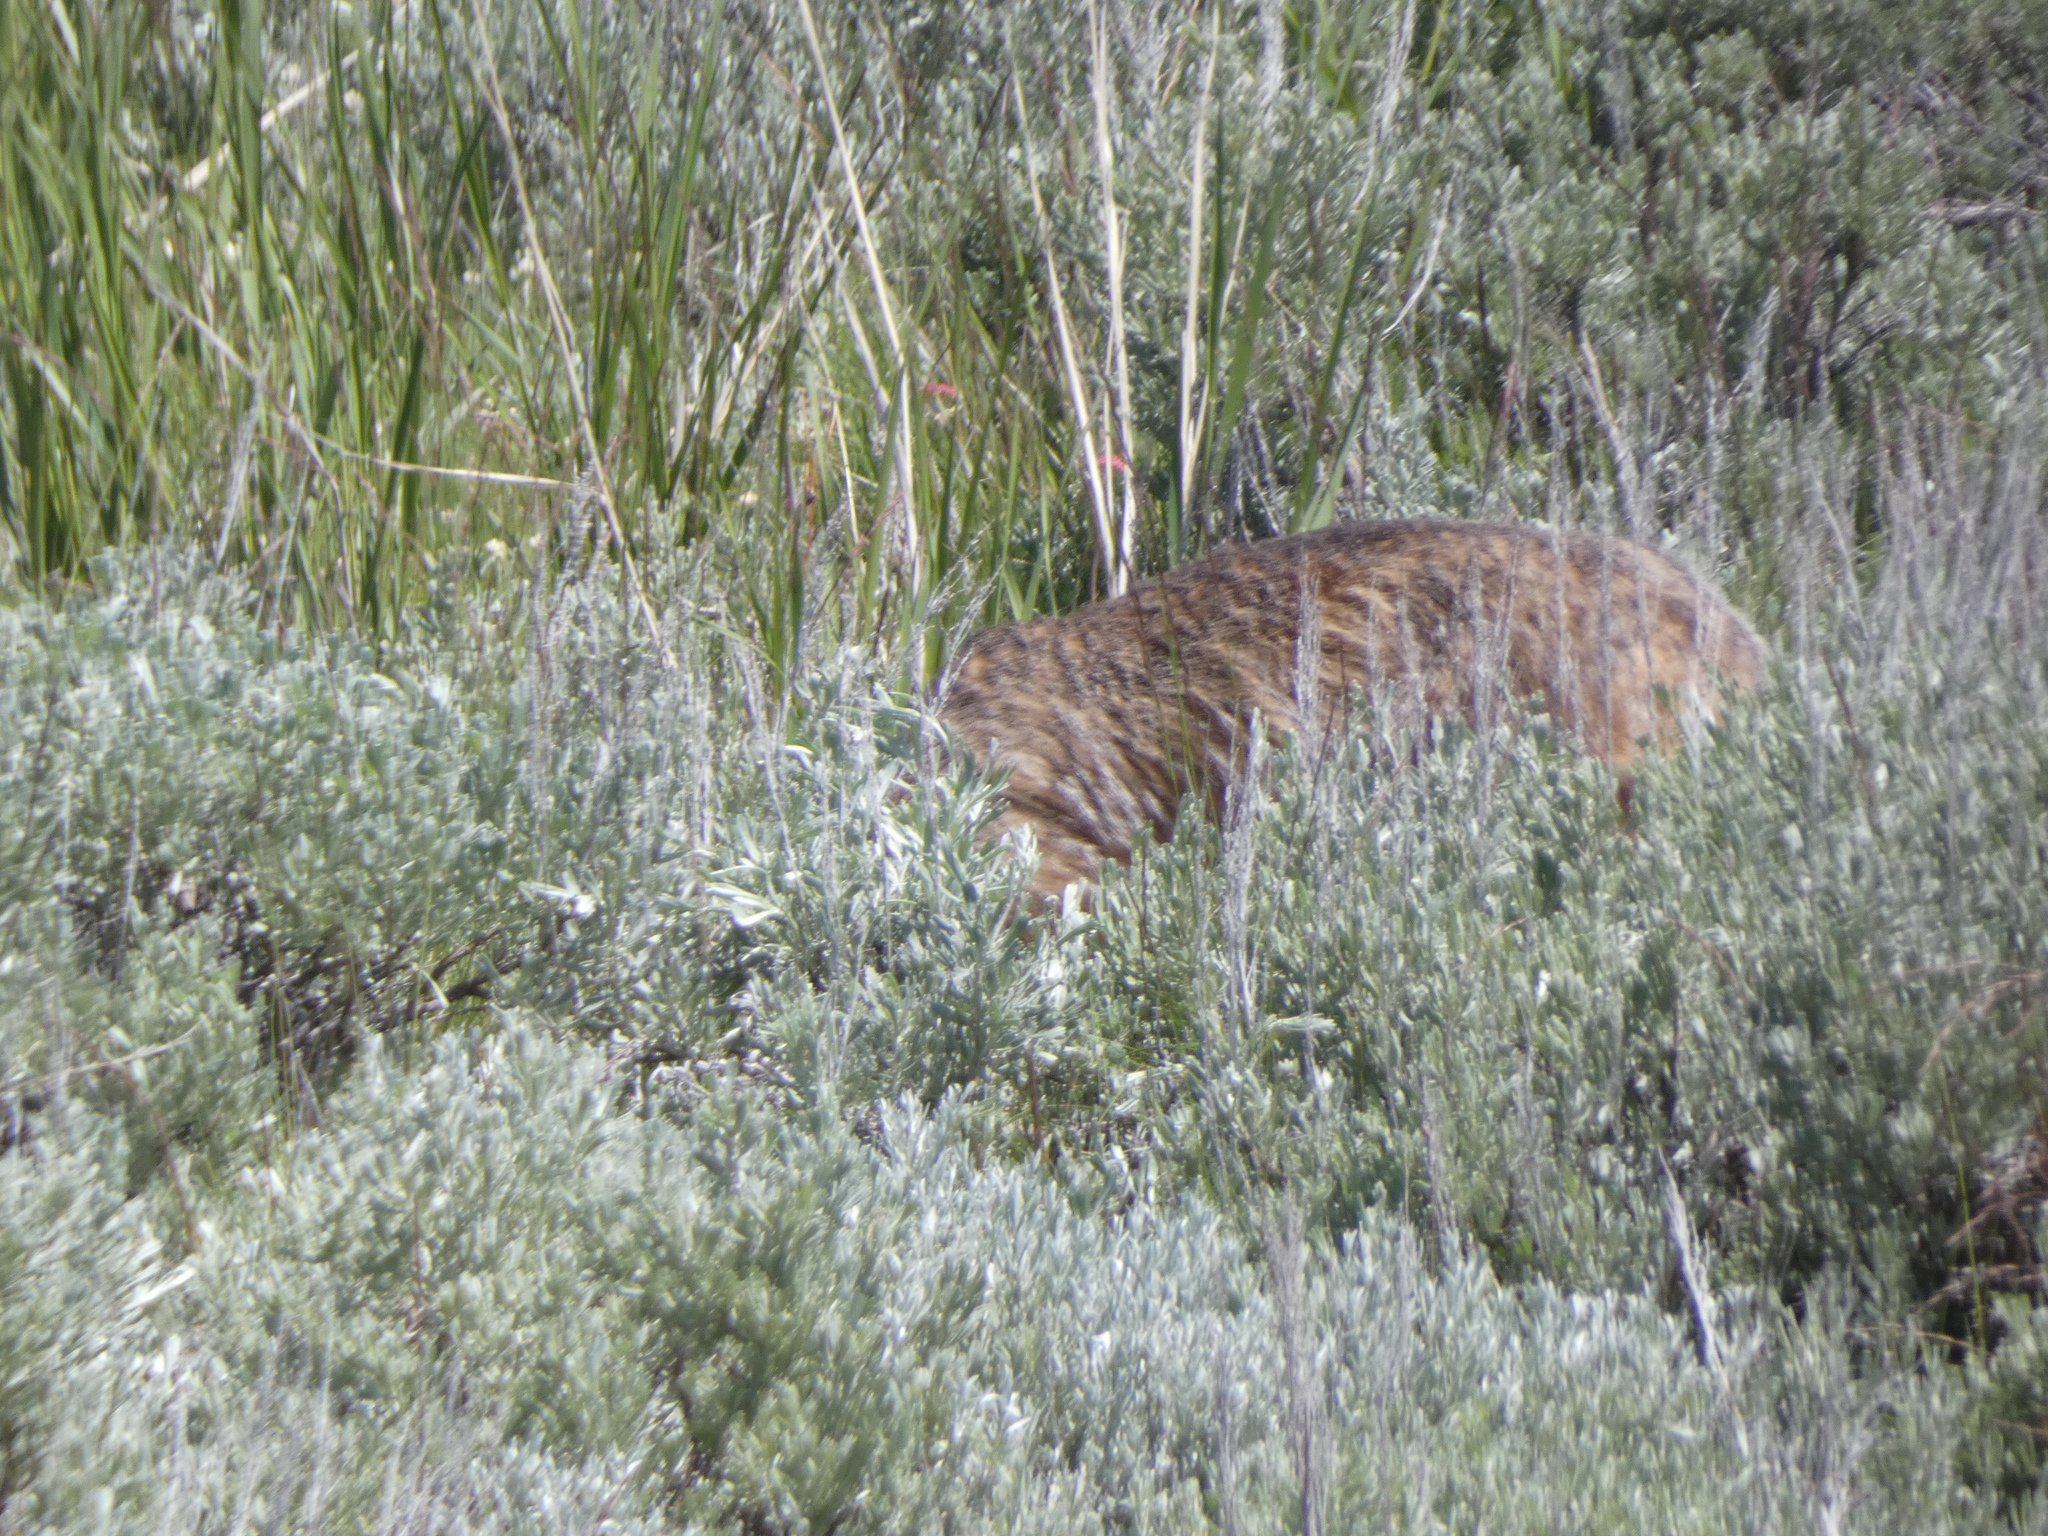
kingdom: Animalia
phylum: Chordata
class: Mammalia
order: Carnivora
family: Mustelidae
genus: Taxidea
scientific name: Taxidea taxus
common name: American badger
